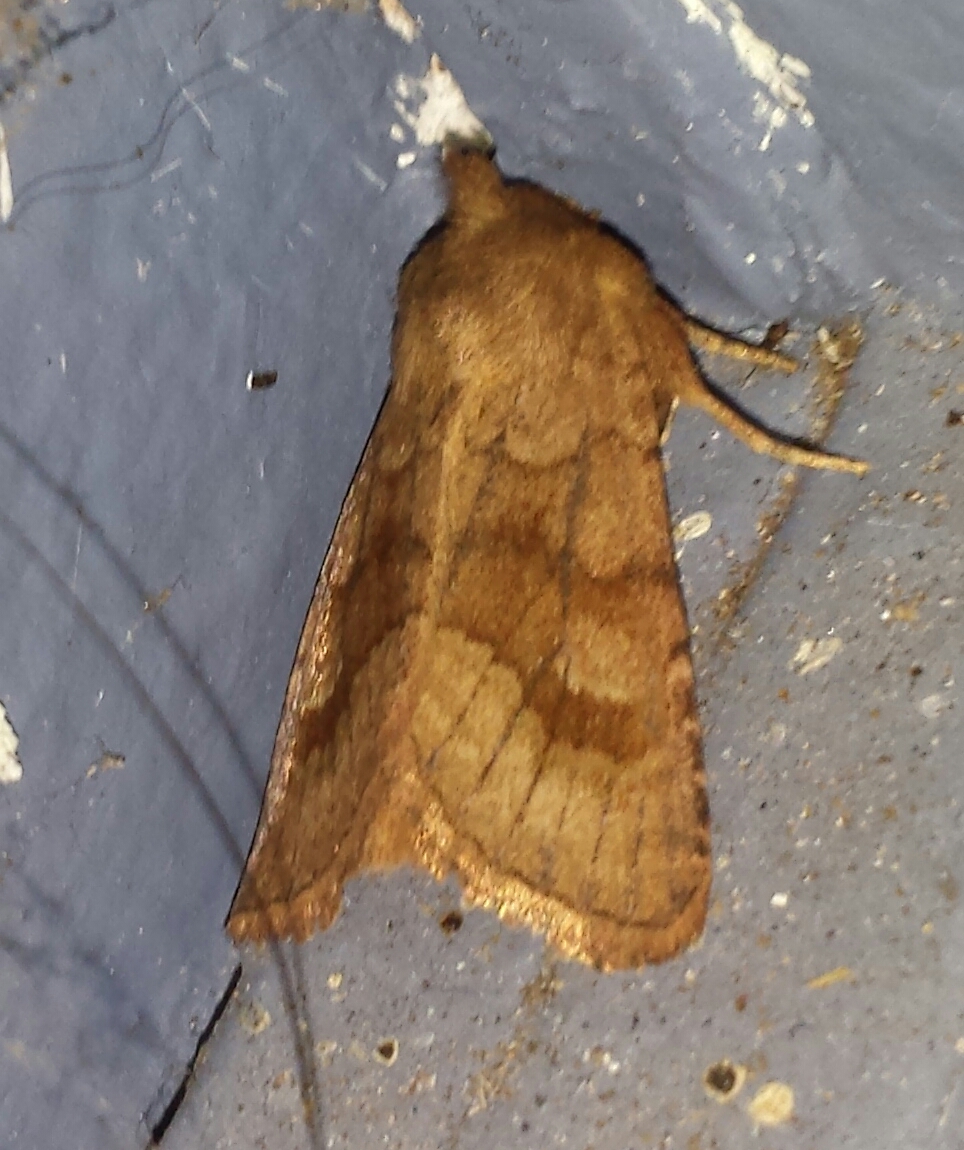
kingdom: Animalia
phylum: Arthropoda
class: Insecta
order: Lepidoptera
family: Noctuidae
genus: Nephelodes
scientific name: Nephelodes minians
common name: Bronzed cutworm
